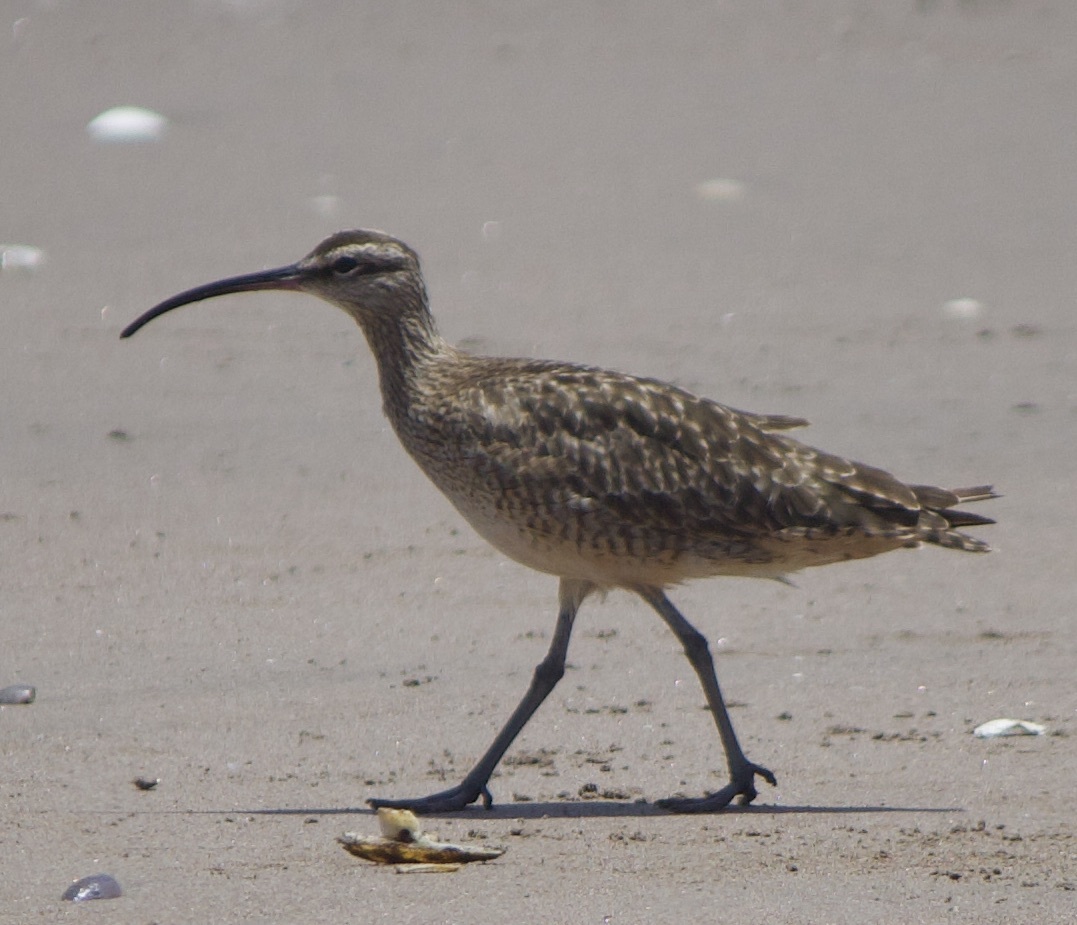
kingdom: Animalia
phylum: Chordata
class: Aves
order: Charadriiformes
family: Scolopacidae
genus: Numenius
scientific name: Numenius phaeopus
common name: Whimbrel
